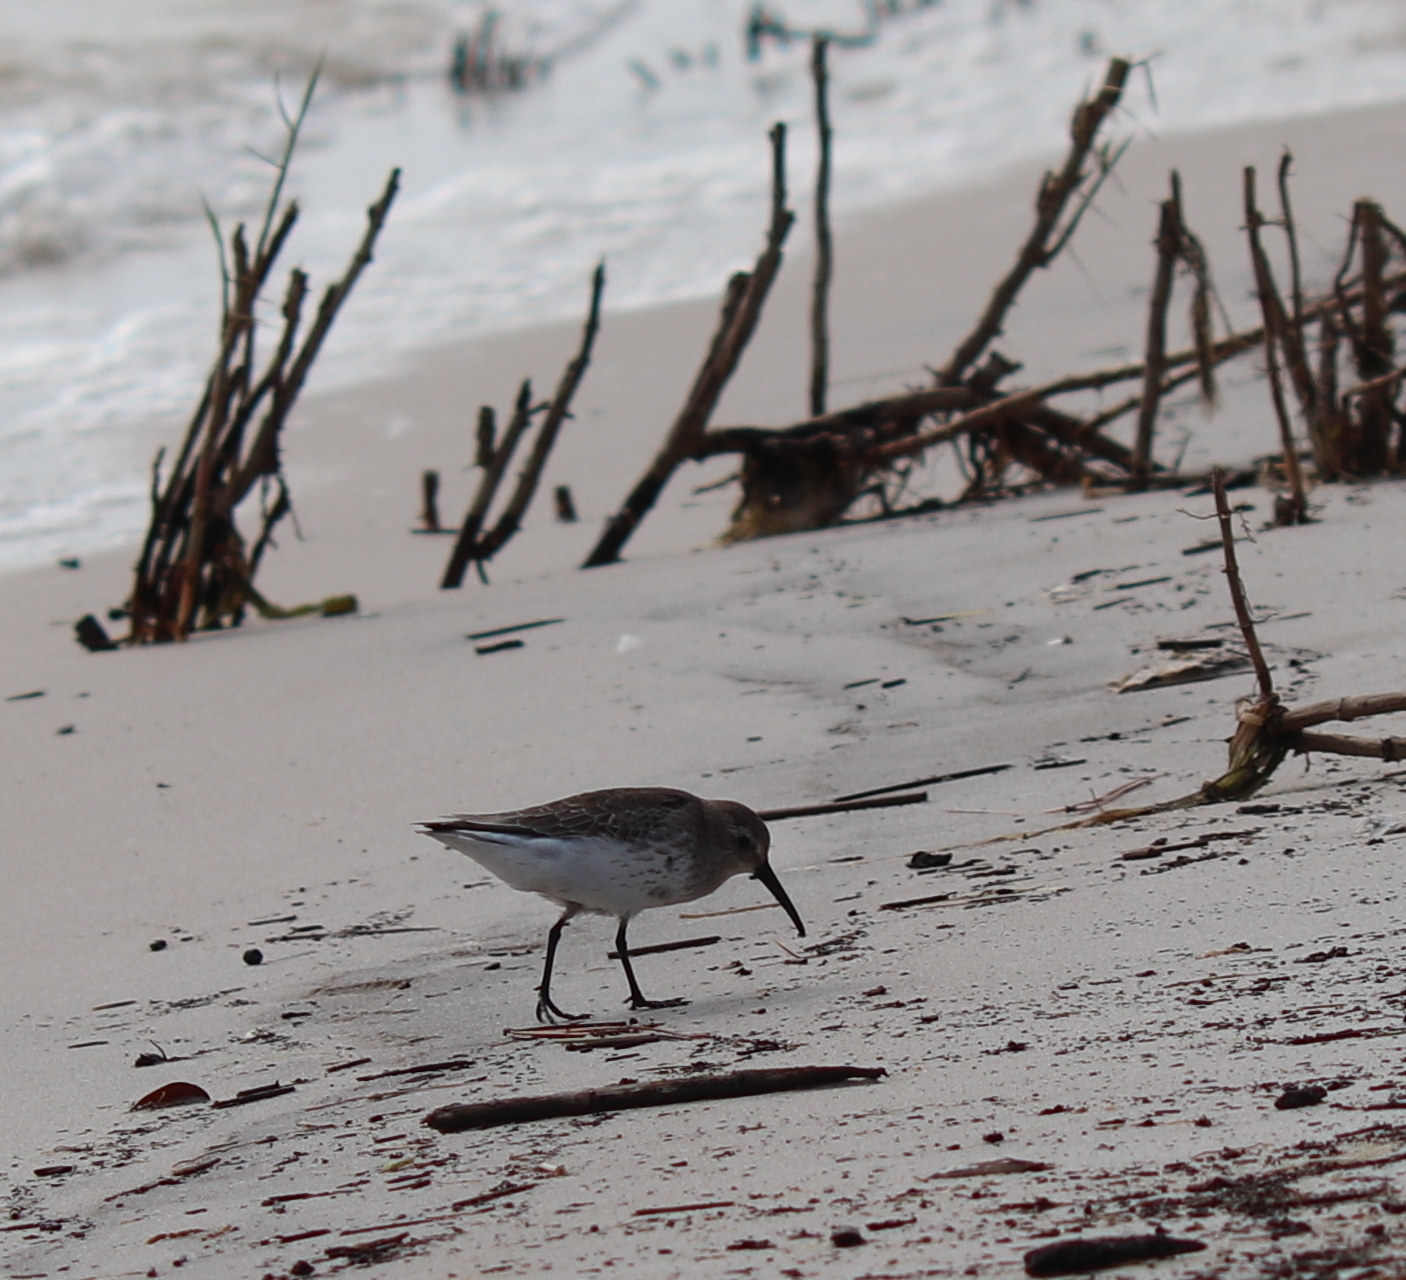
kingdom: Animalia
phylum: Chordata
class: Aves
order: Charadriiformes
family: Scolopacidae
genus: Calidris
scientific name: Calidris alpina
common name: Dunlin
